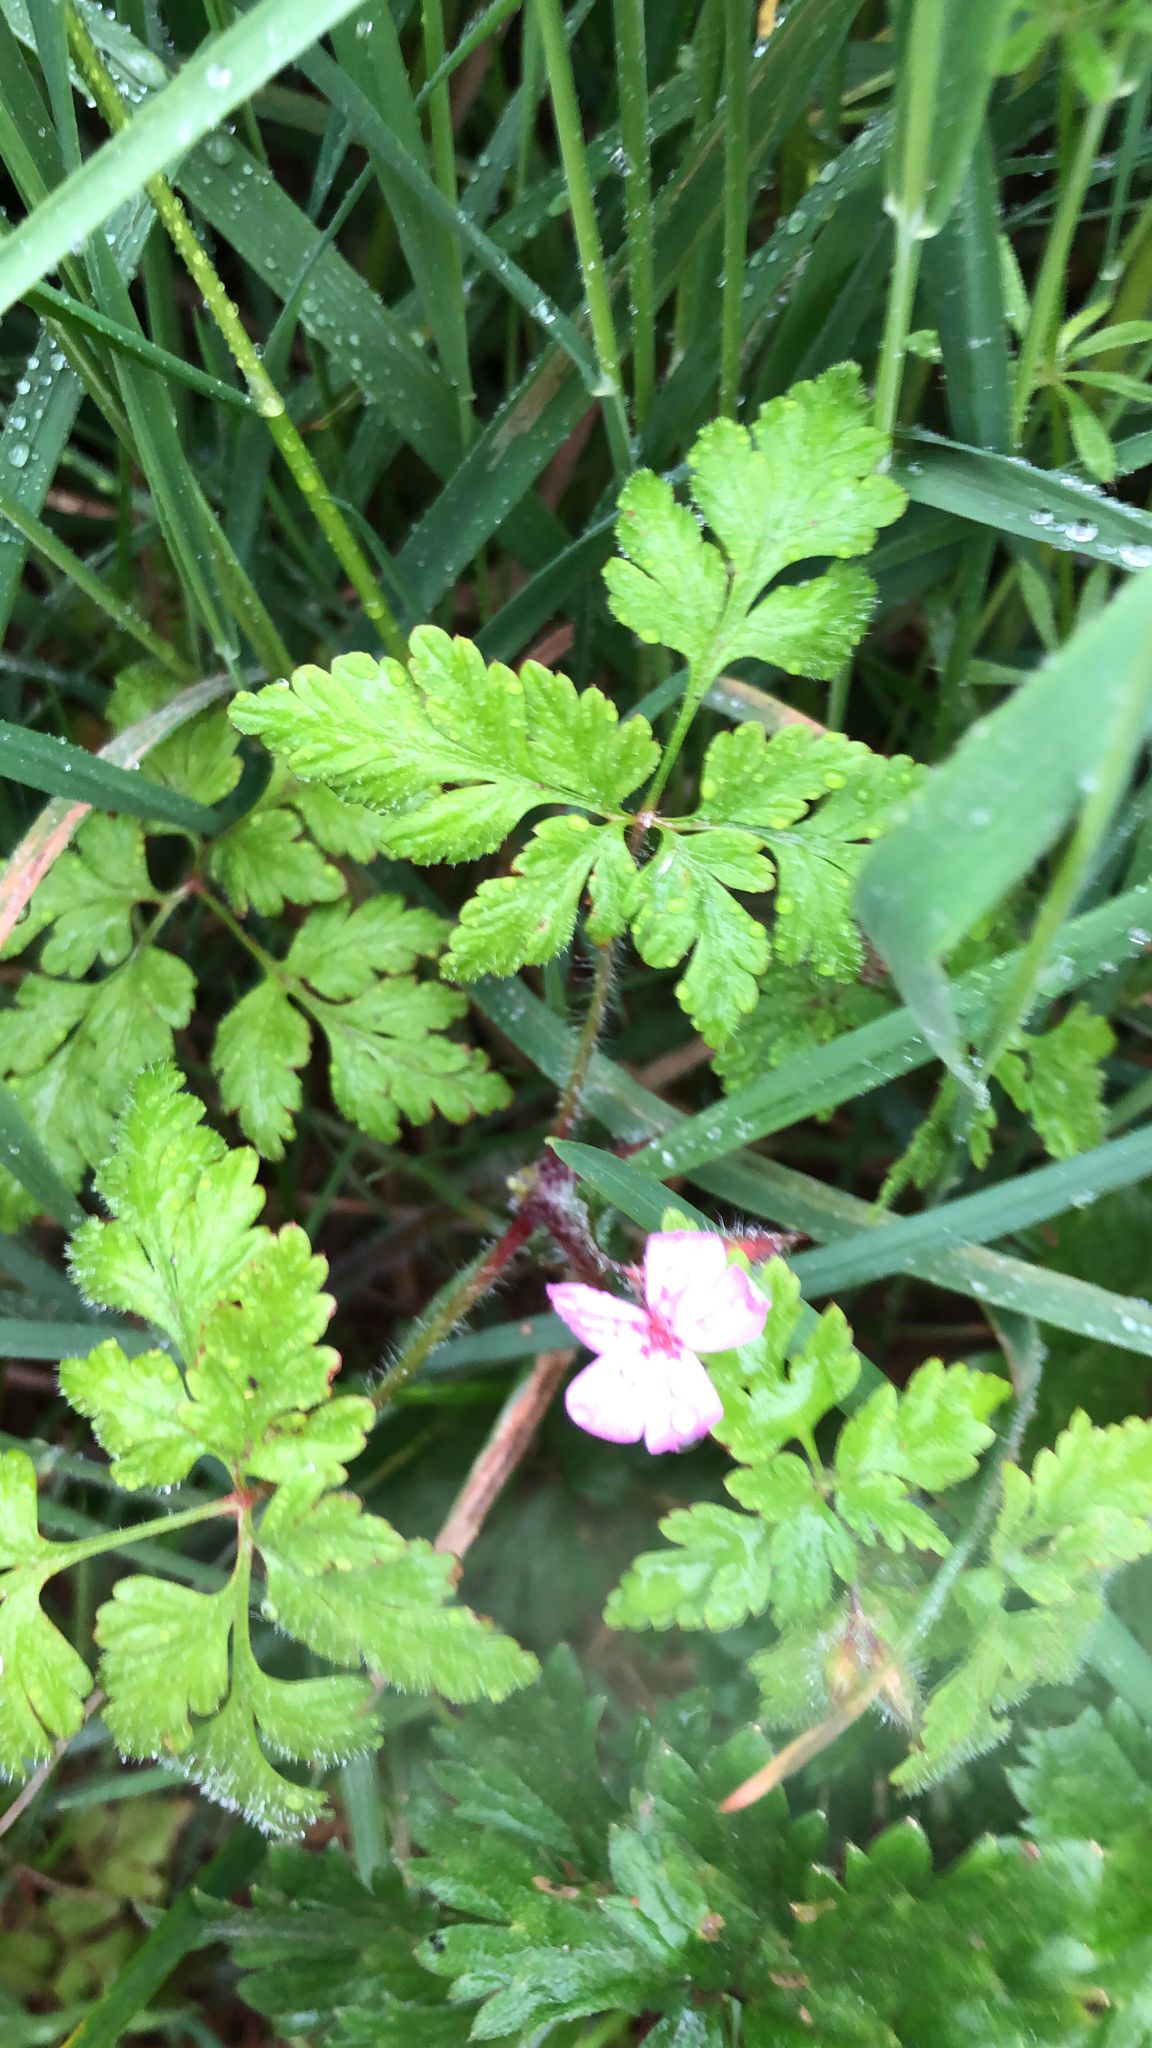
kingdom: Plantae
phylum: Tracheophyta
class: Magnoliopsida
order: Geraniales
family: Geraniaceae
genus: Geranium
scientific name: Geranium robertianum
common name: Herb-robert
